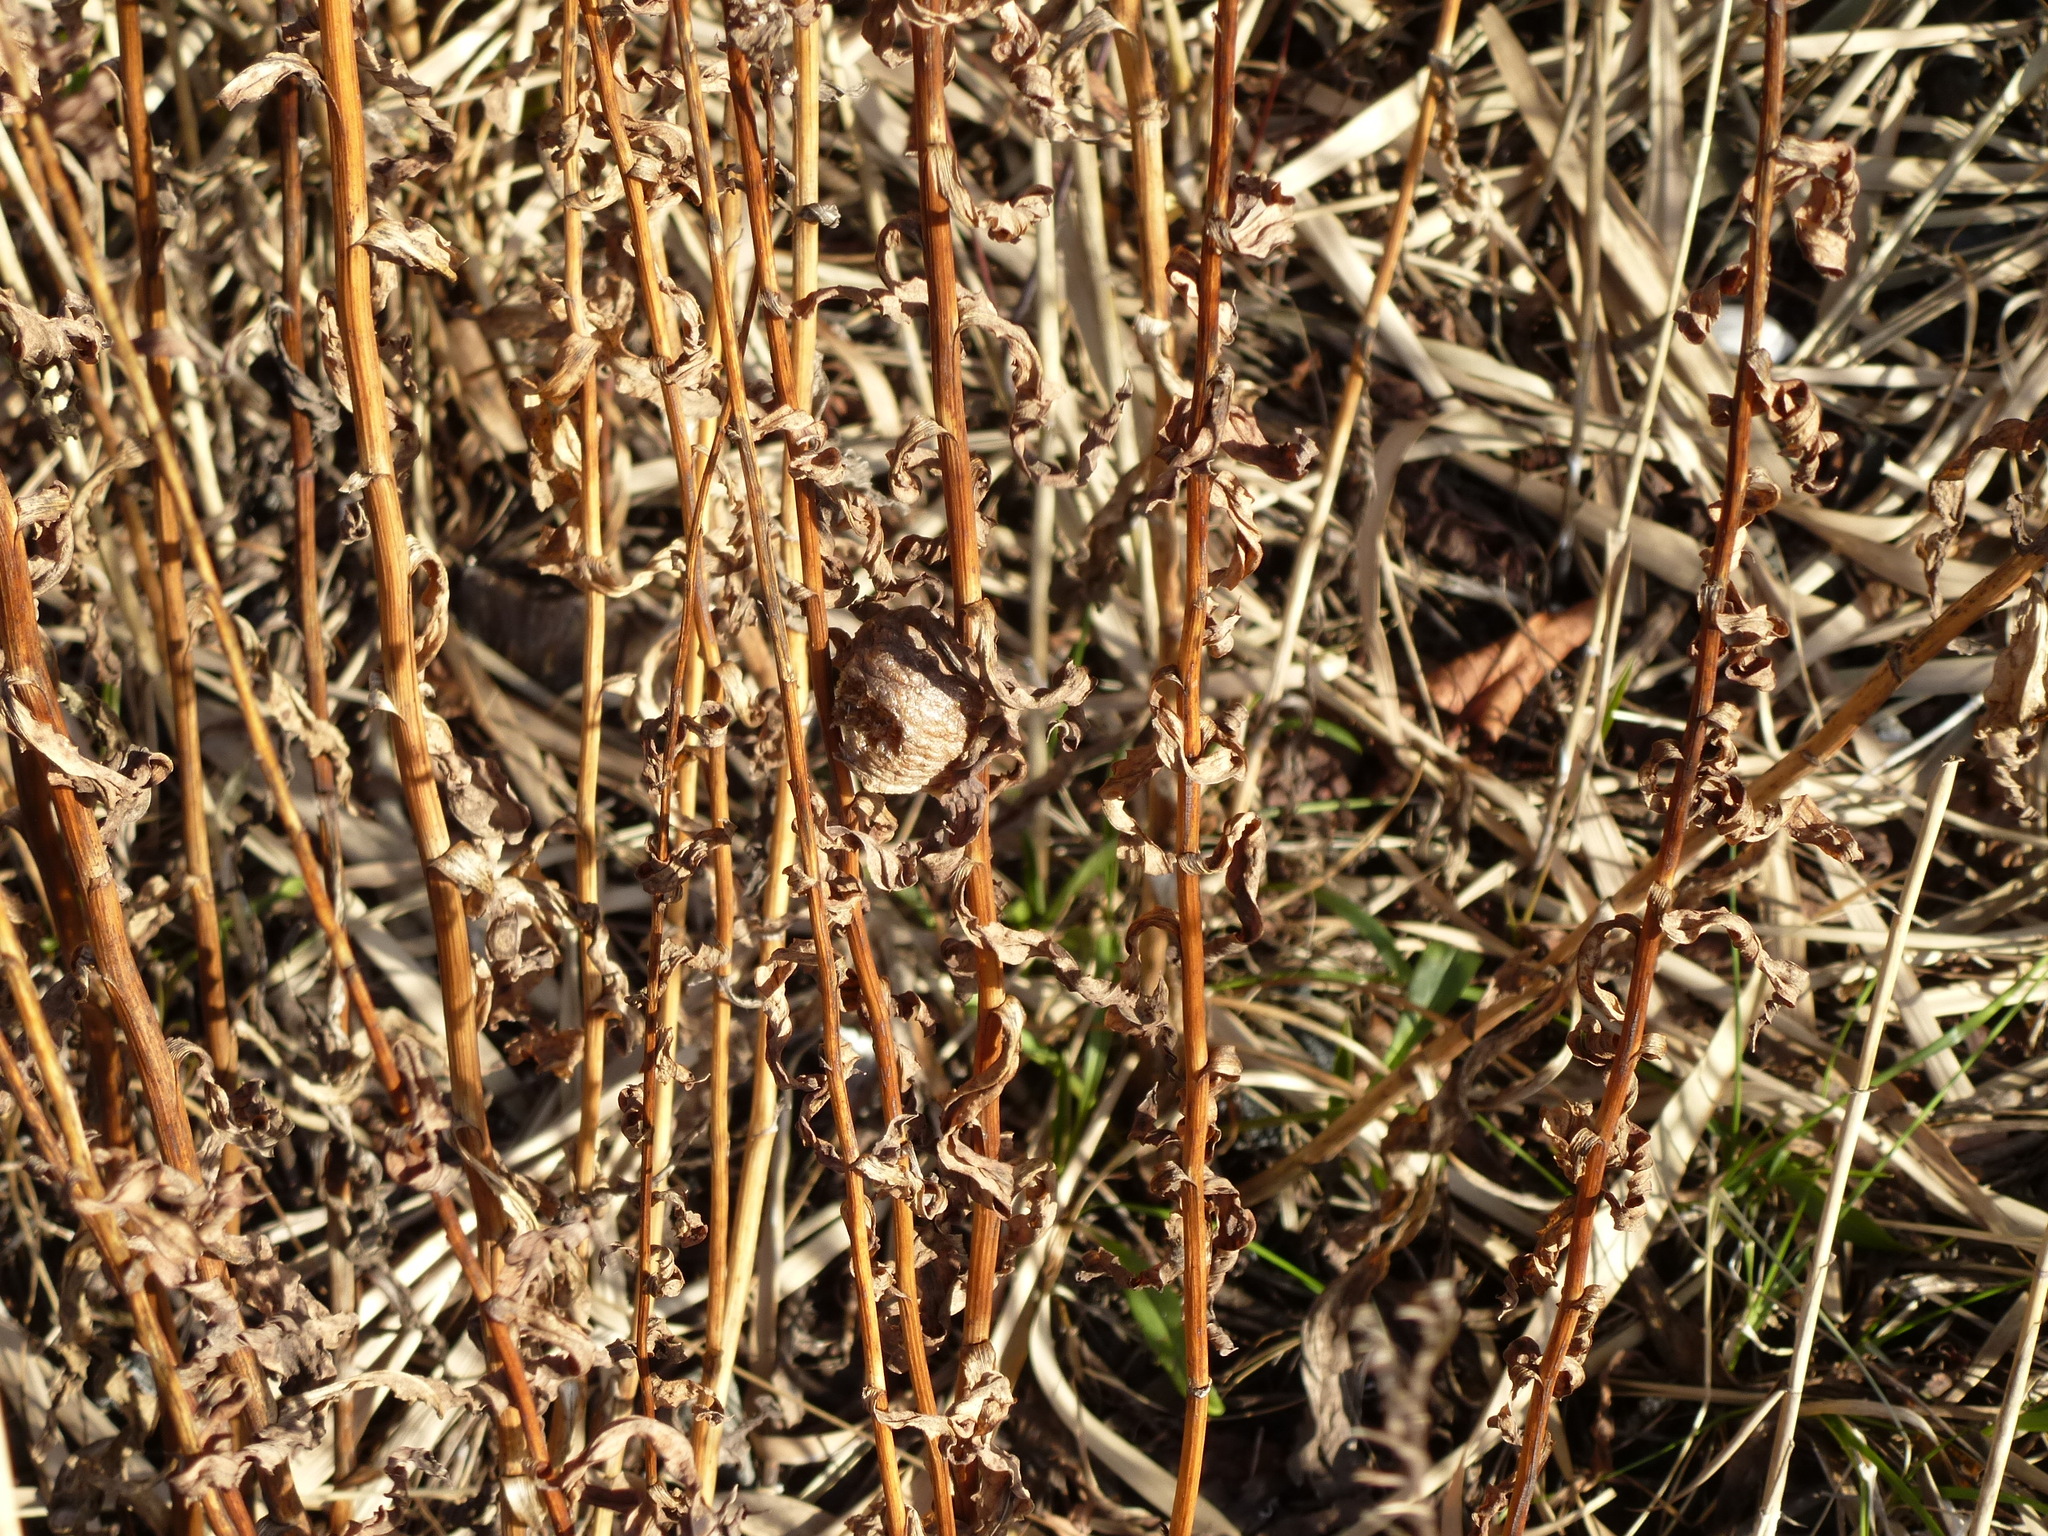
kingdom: Animalia
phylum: Arthropoda
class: Insecta
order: Mantodea
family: Mantidae
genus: Tenodera
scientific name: Tenodera sinensis
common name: Chinese mantis
